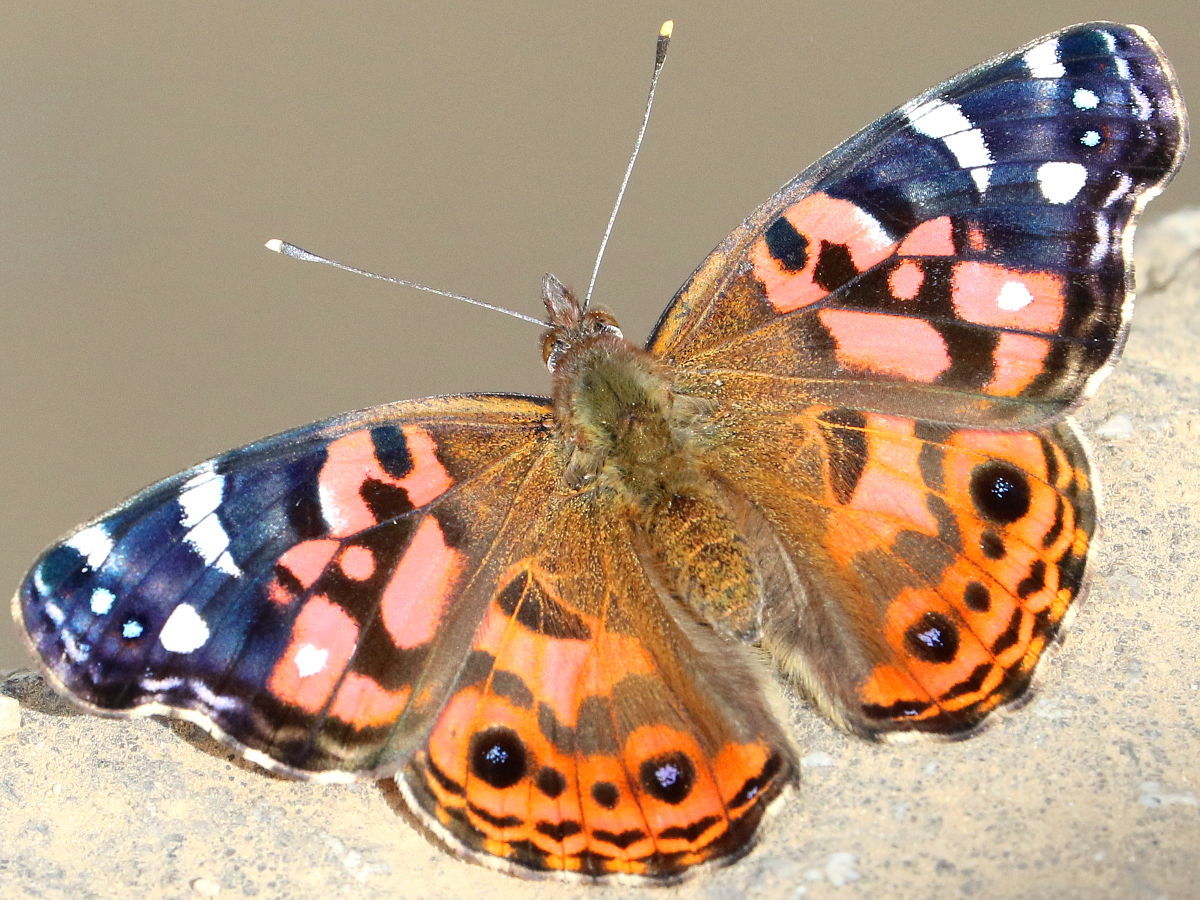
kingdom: Animalia
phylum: Arthropoda
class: Insecta
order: Lepidoptera
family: Nymphalidae
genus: Vanessa
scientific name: Vanessa braziliensis
